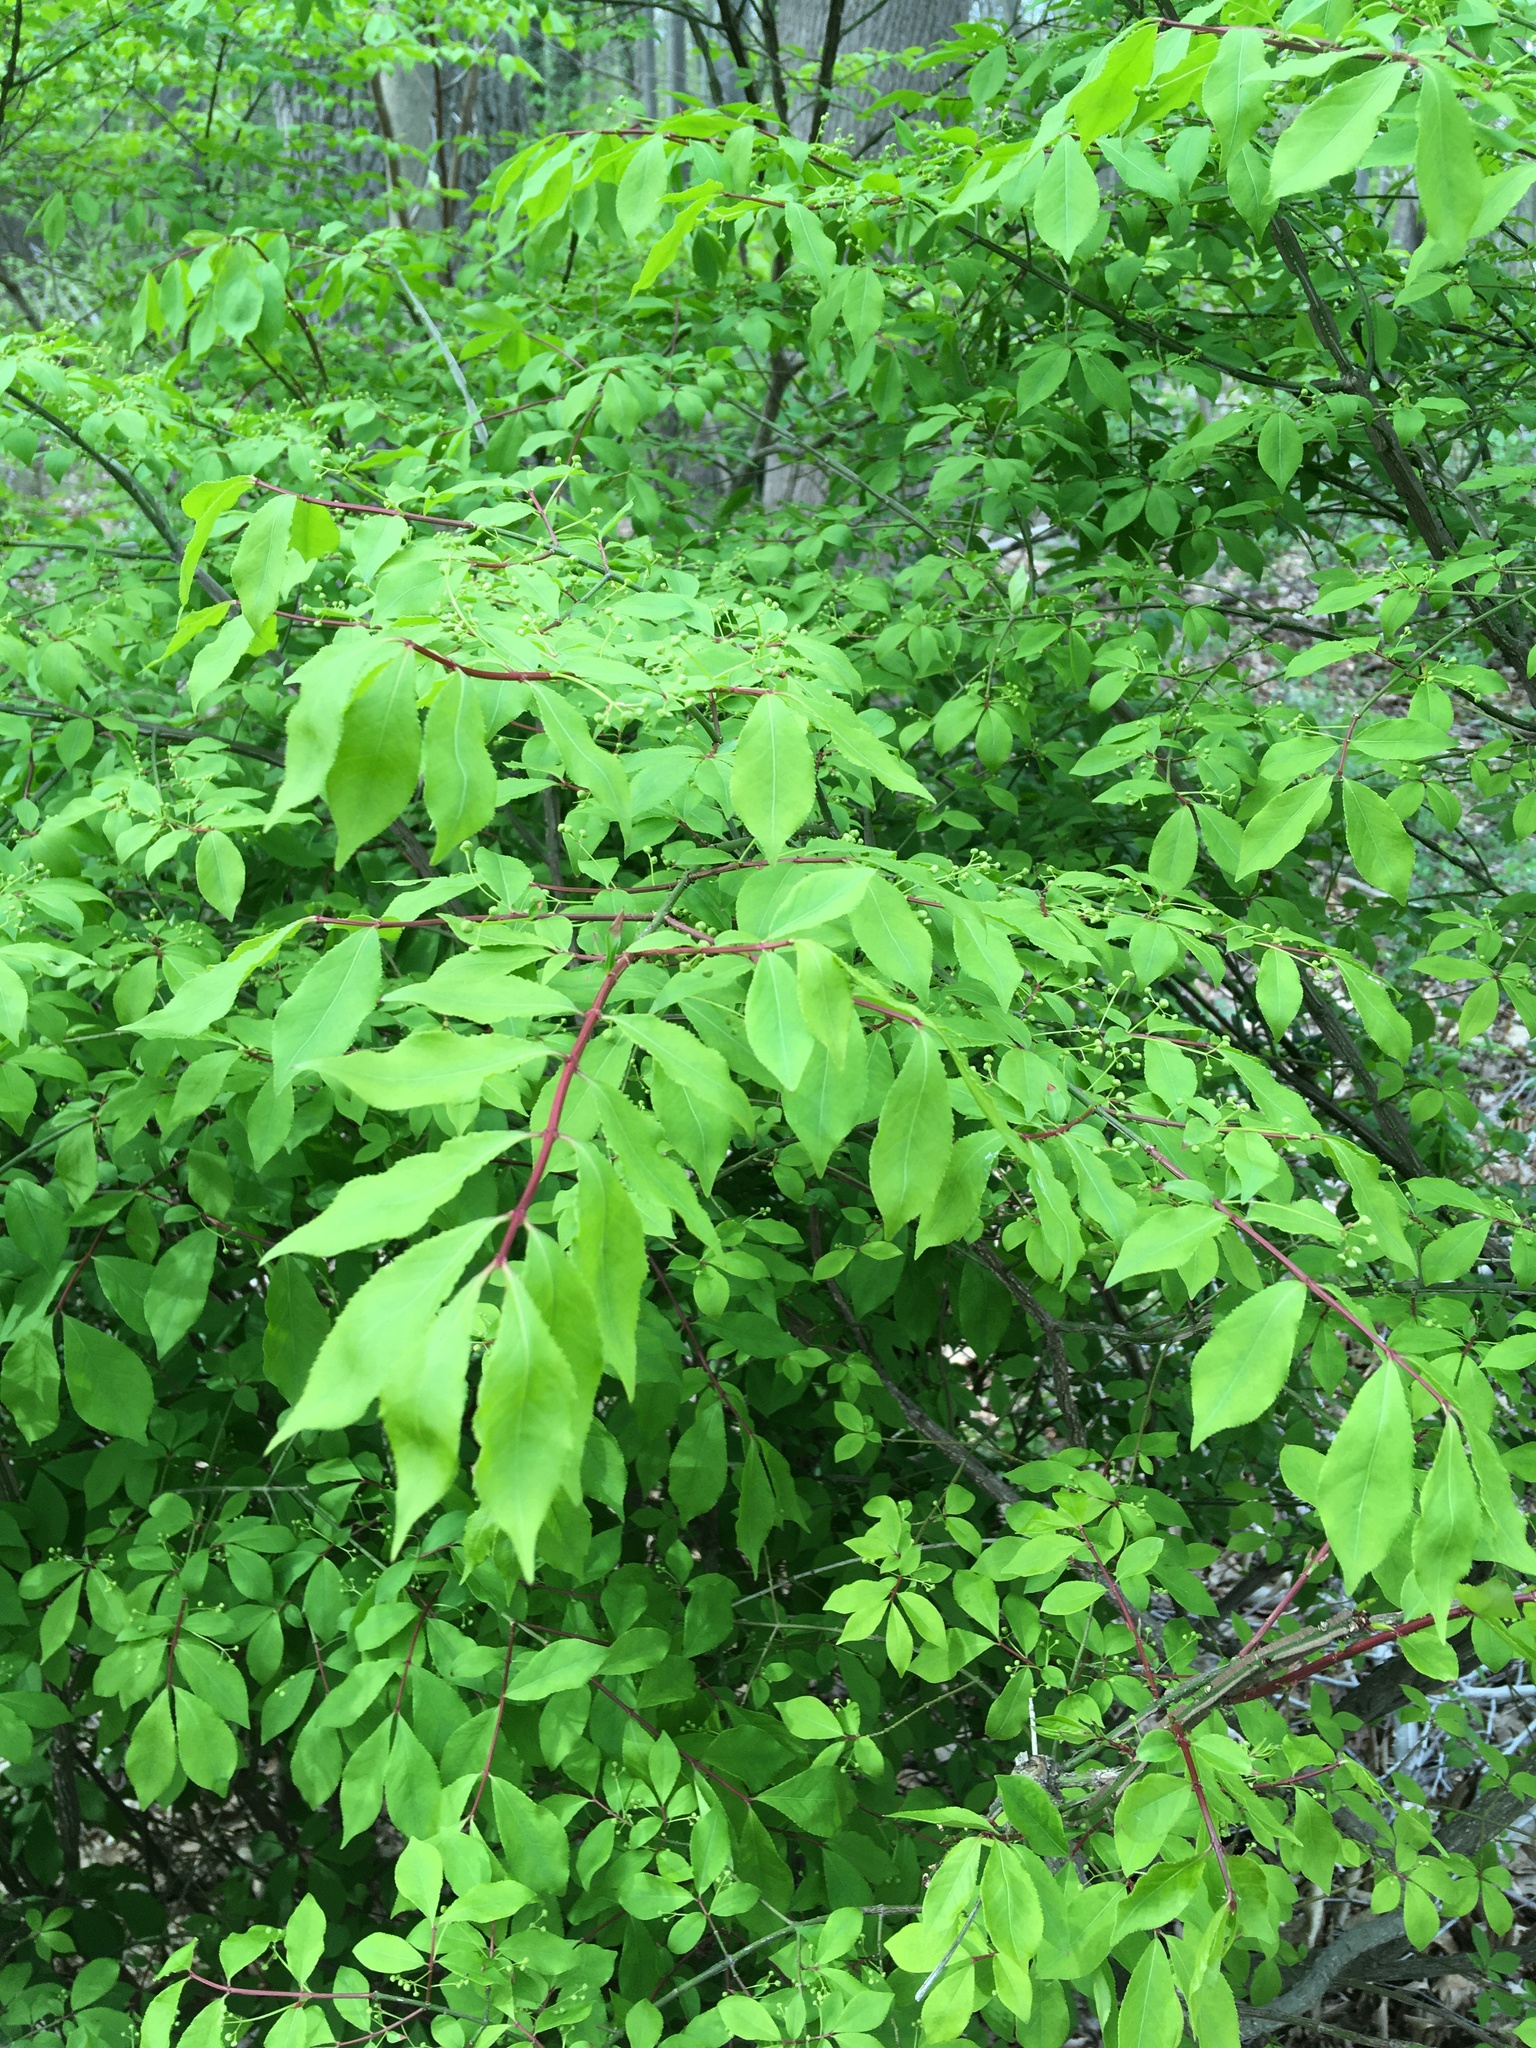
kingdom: Plantae
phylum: Tracheophyta
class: Magnoliopsida
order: Celastrales
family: Celastraceae
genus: Euonymus
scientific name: Euonymus alatus
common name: Winged euonymus
